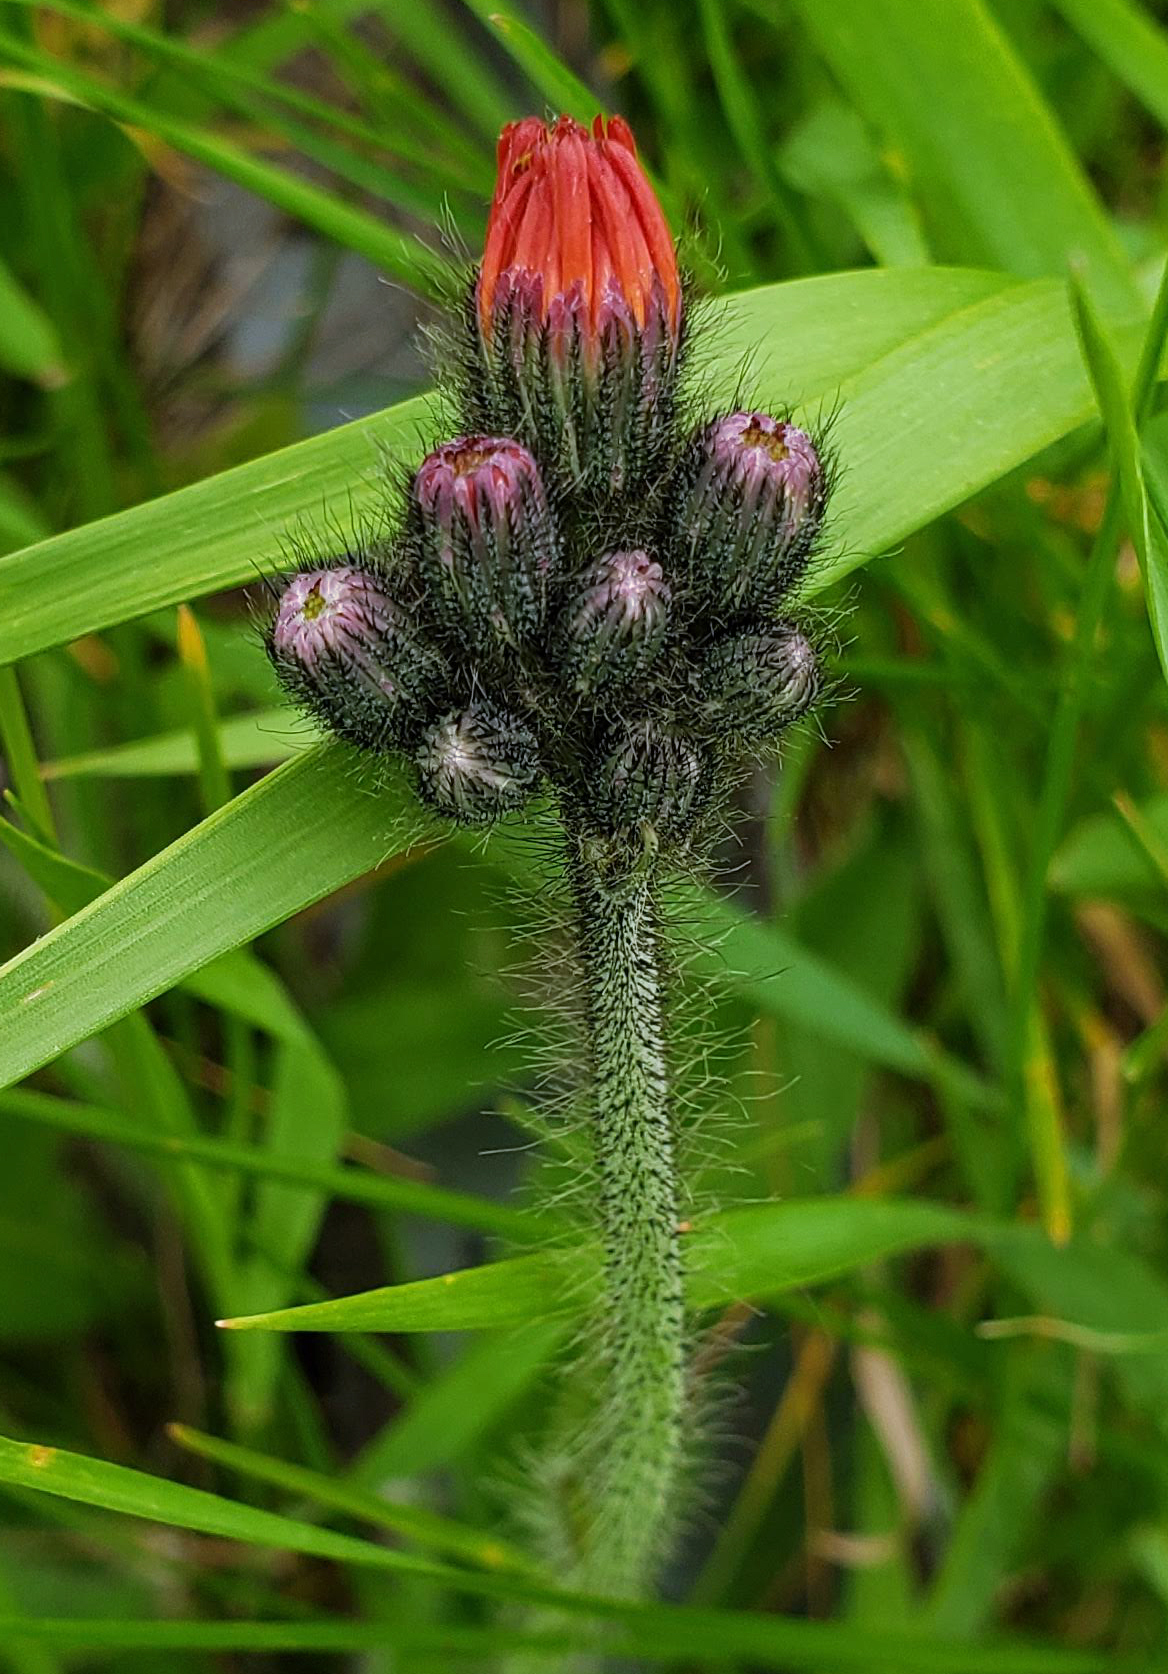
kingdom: Plantae
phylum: Tracheophyta
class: Magnoliopsida
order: Asterales
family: Asteraceae
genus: Pilosella
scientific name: Pilosella aurantiaca
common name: Fox-and-cubs
